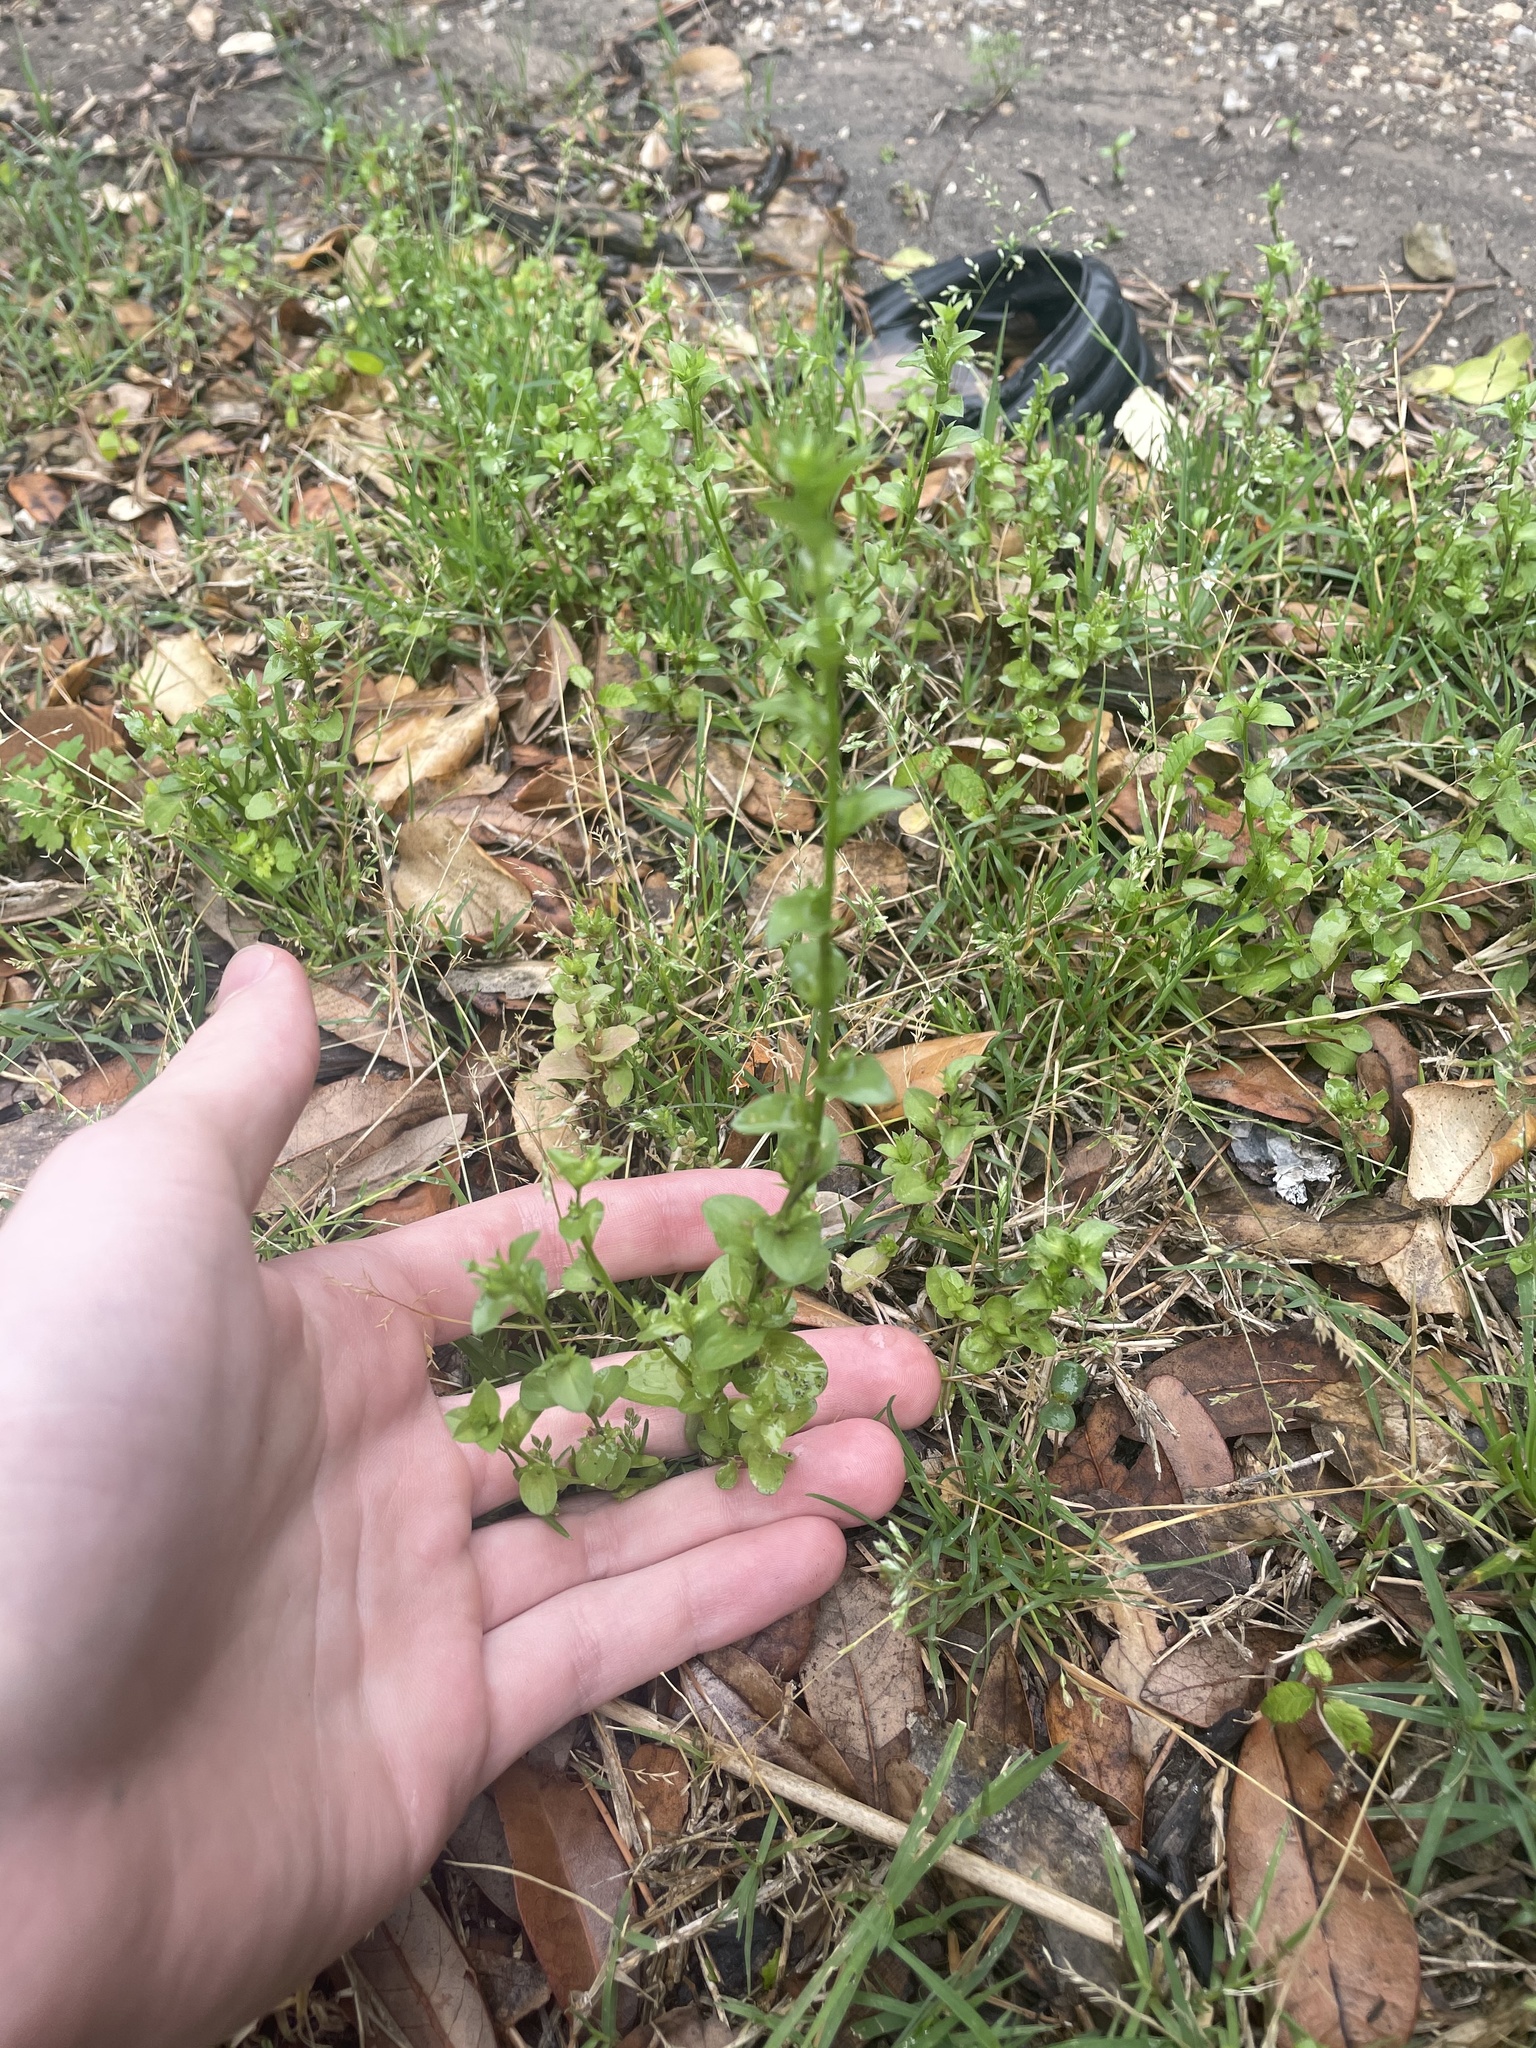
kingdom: Plantae
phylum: Tracheophyta
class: Magnoliopsida
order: Asterales
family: Campanulaceae
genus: Triodanis
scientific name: Triodanis biflora
